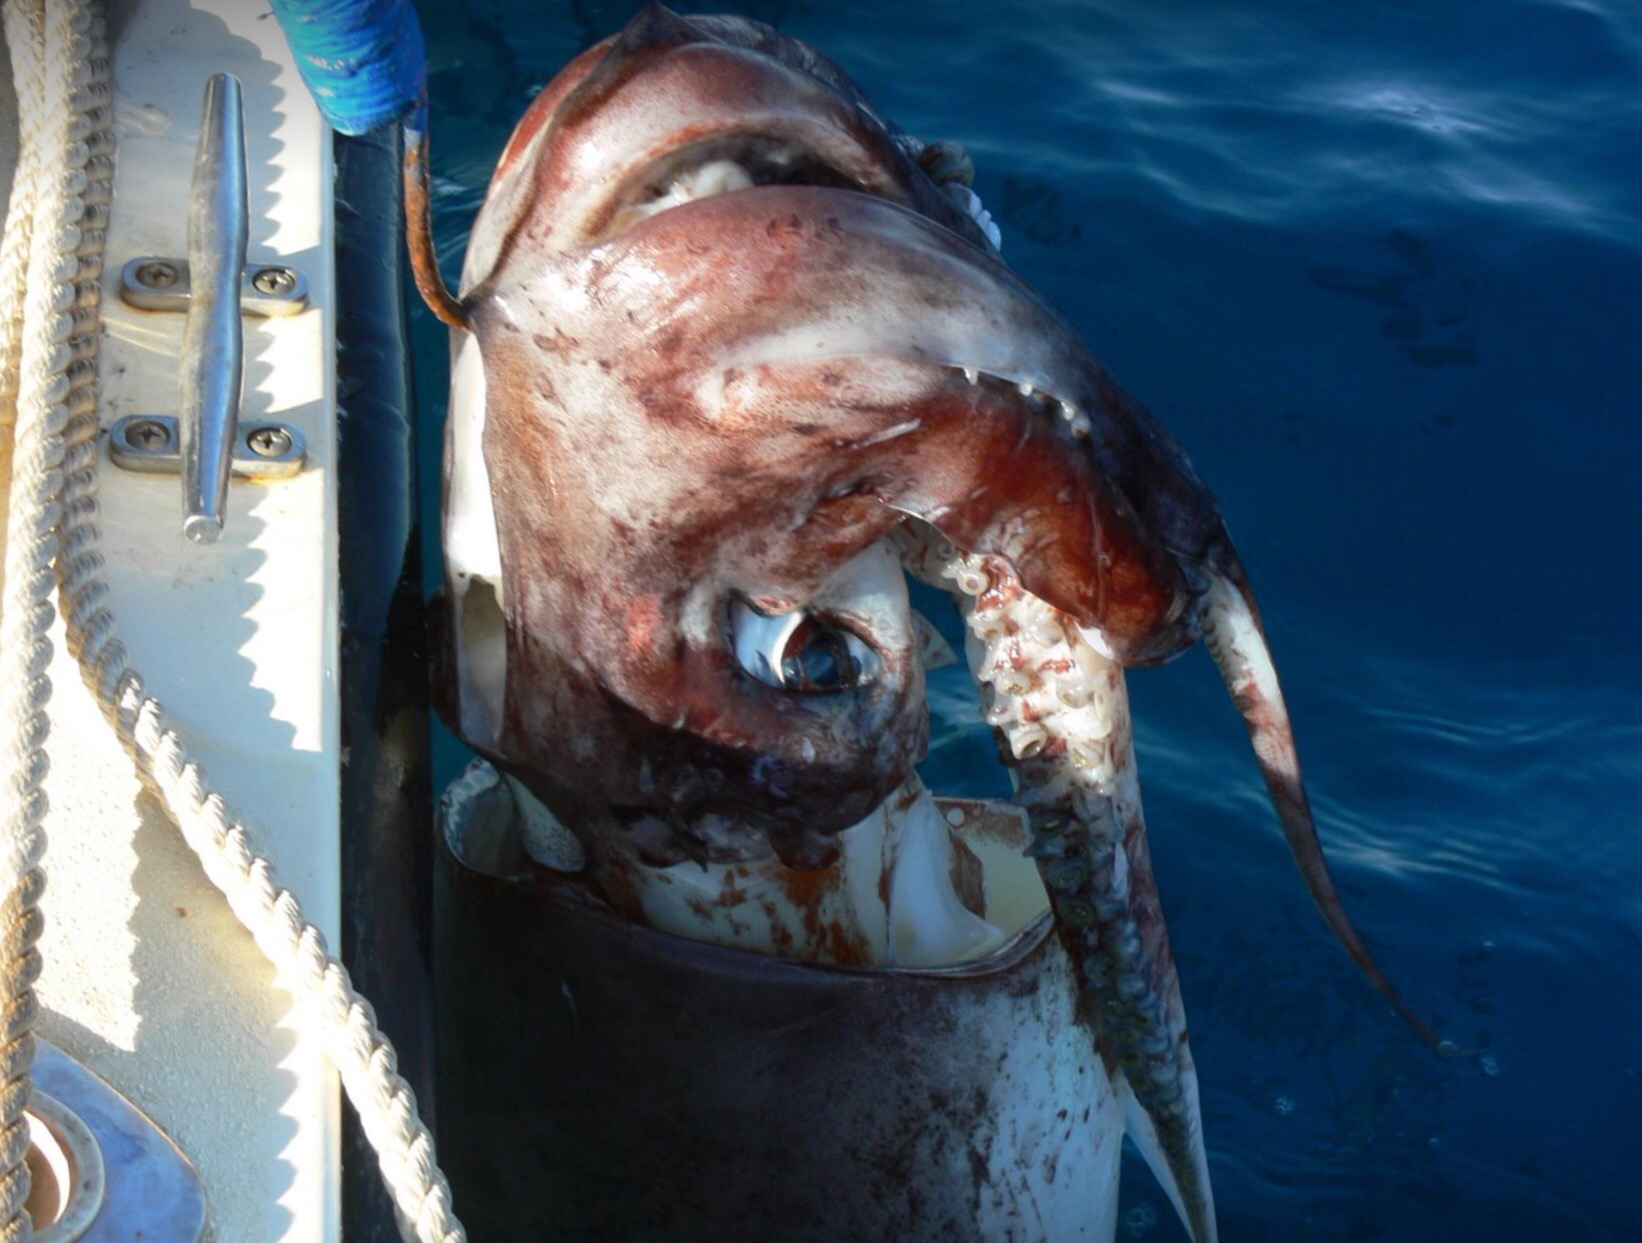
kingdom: Animalia
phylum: Mollusca
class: Cephalopoda
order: Oegopsida
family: Ommastrephidae
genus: Dosidicus
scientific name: Dosidicus gigas
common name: Humboldt squid
